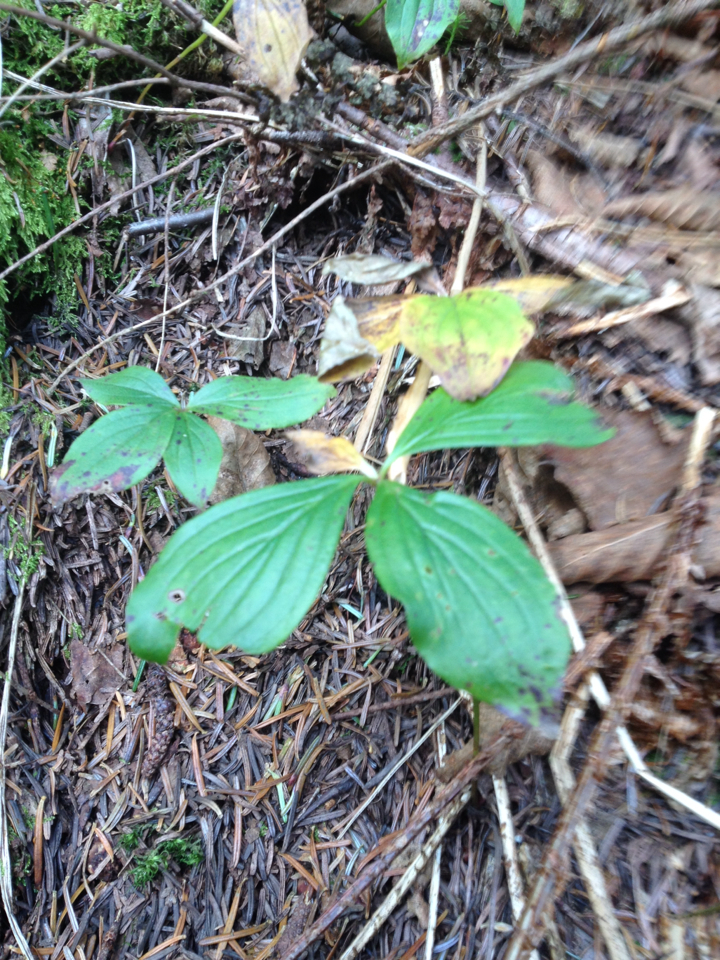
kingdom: Plantae
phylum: Tracheophyta
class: Magnoliopsida
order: Cornales
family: Cornaceae
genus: Cornus
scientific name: Cornus canadensis
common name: Creeping dogwood
